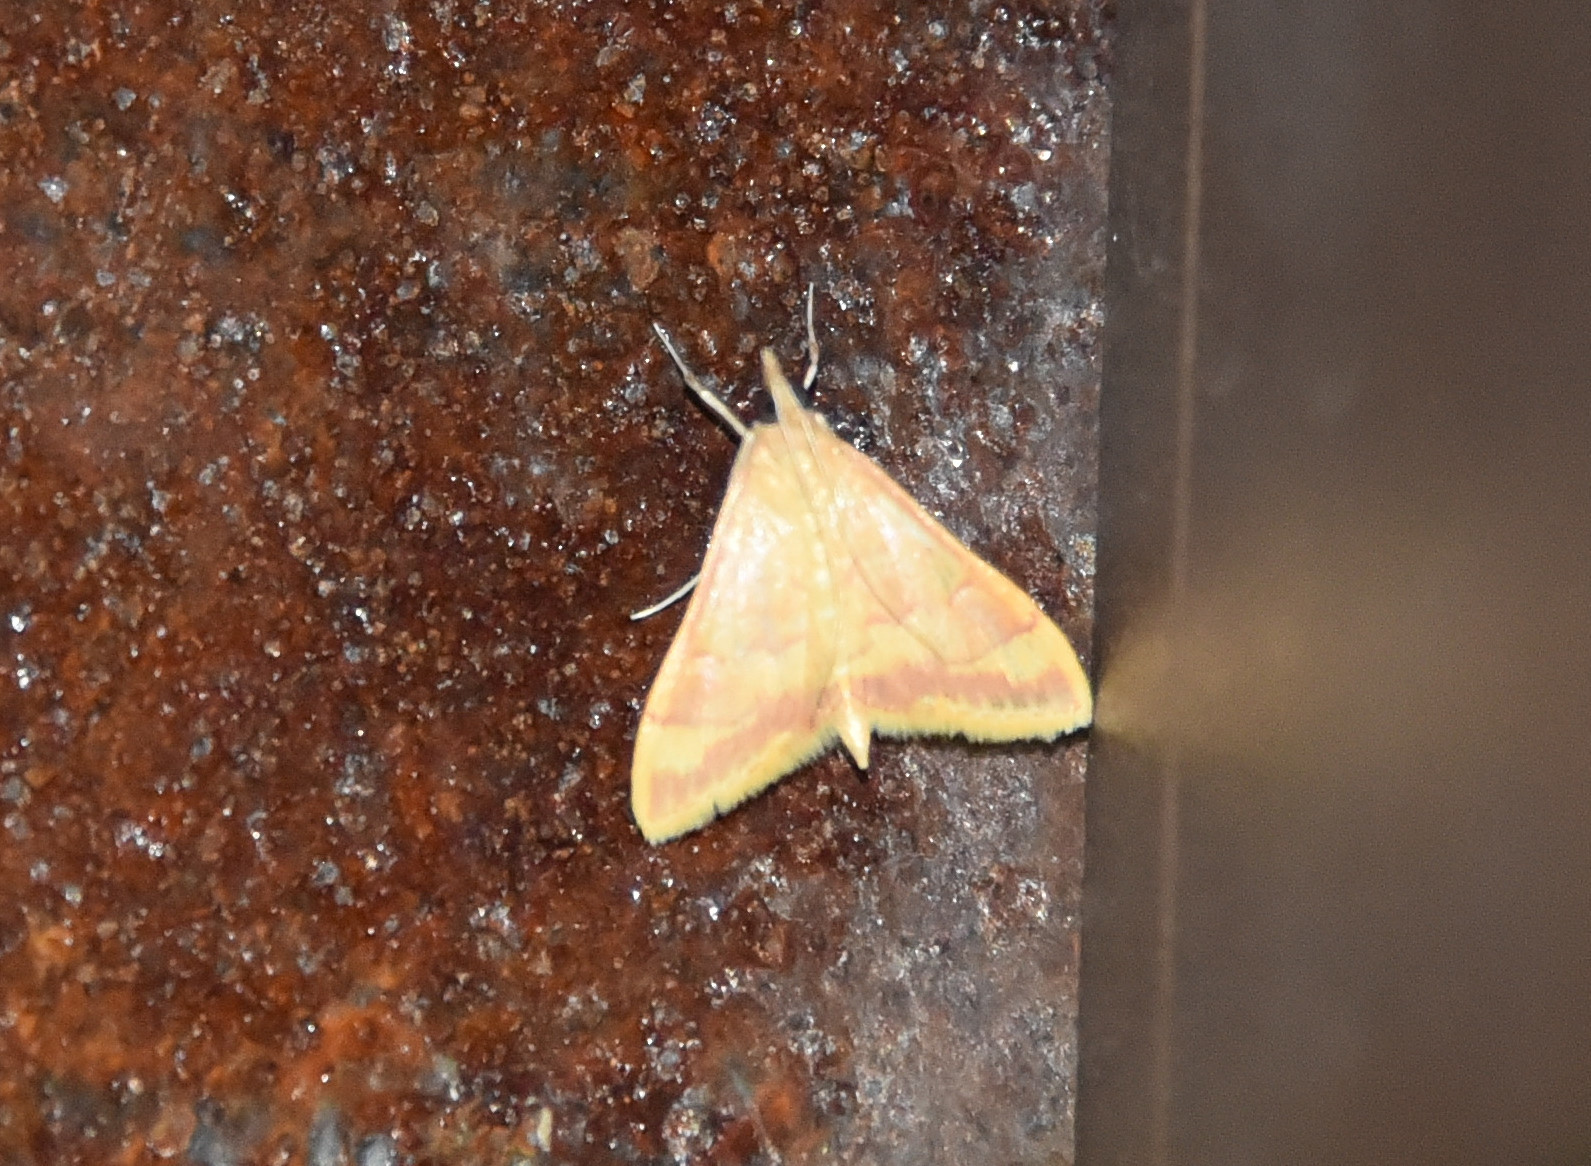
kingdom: Animalia
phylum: Arthropoda
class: Insecta
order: Lepidoptera
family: Crambidae
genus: Pyrausta
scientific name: Pyrausta pseudonythesalis
